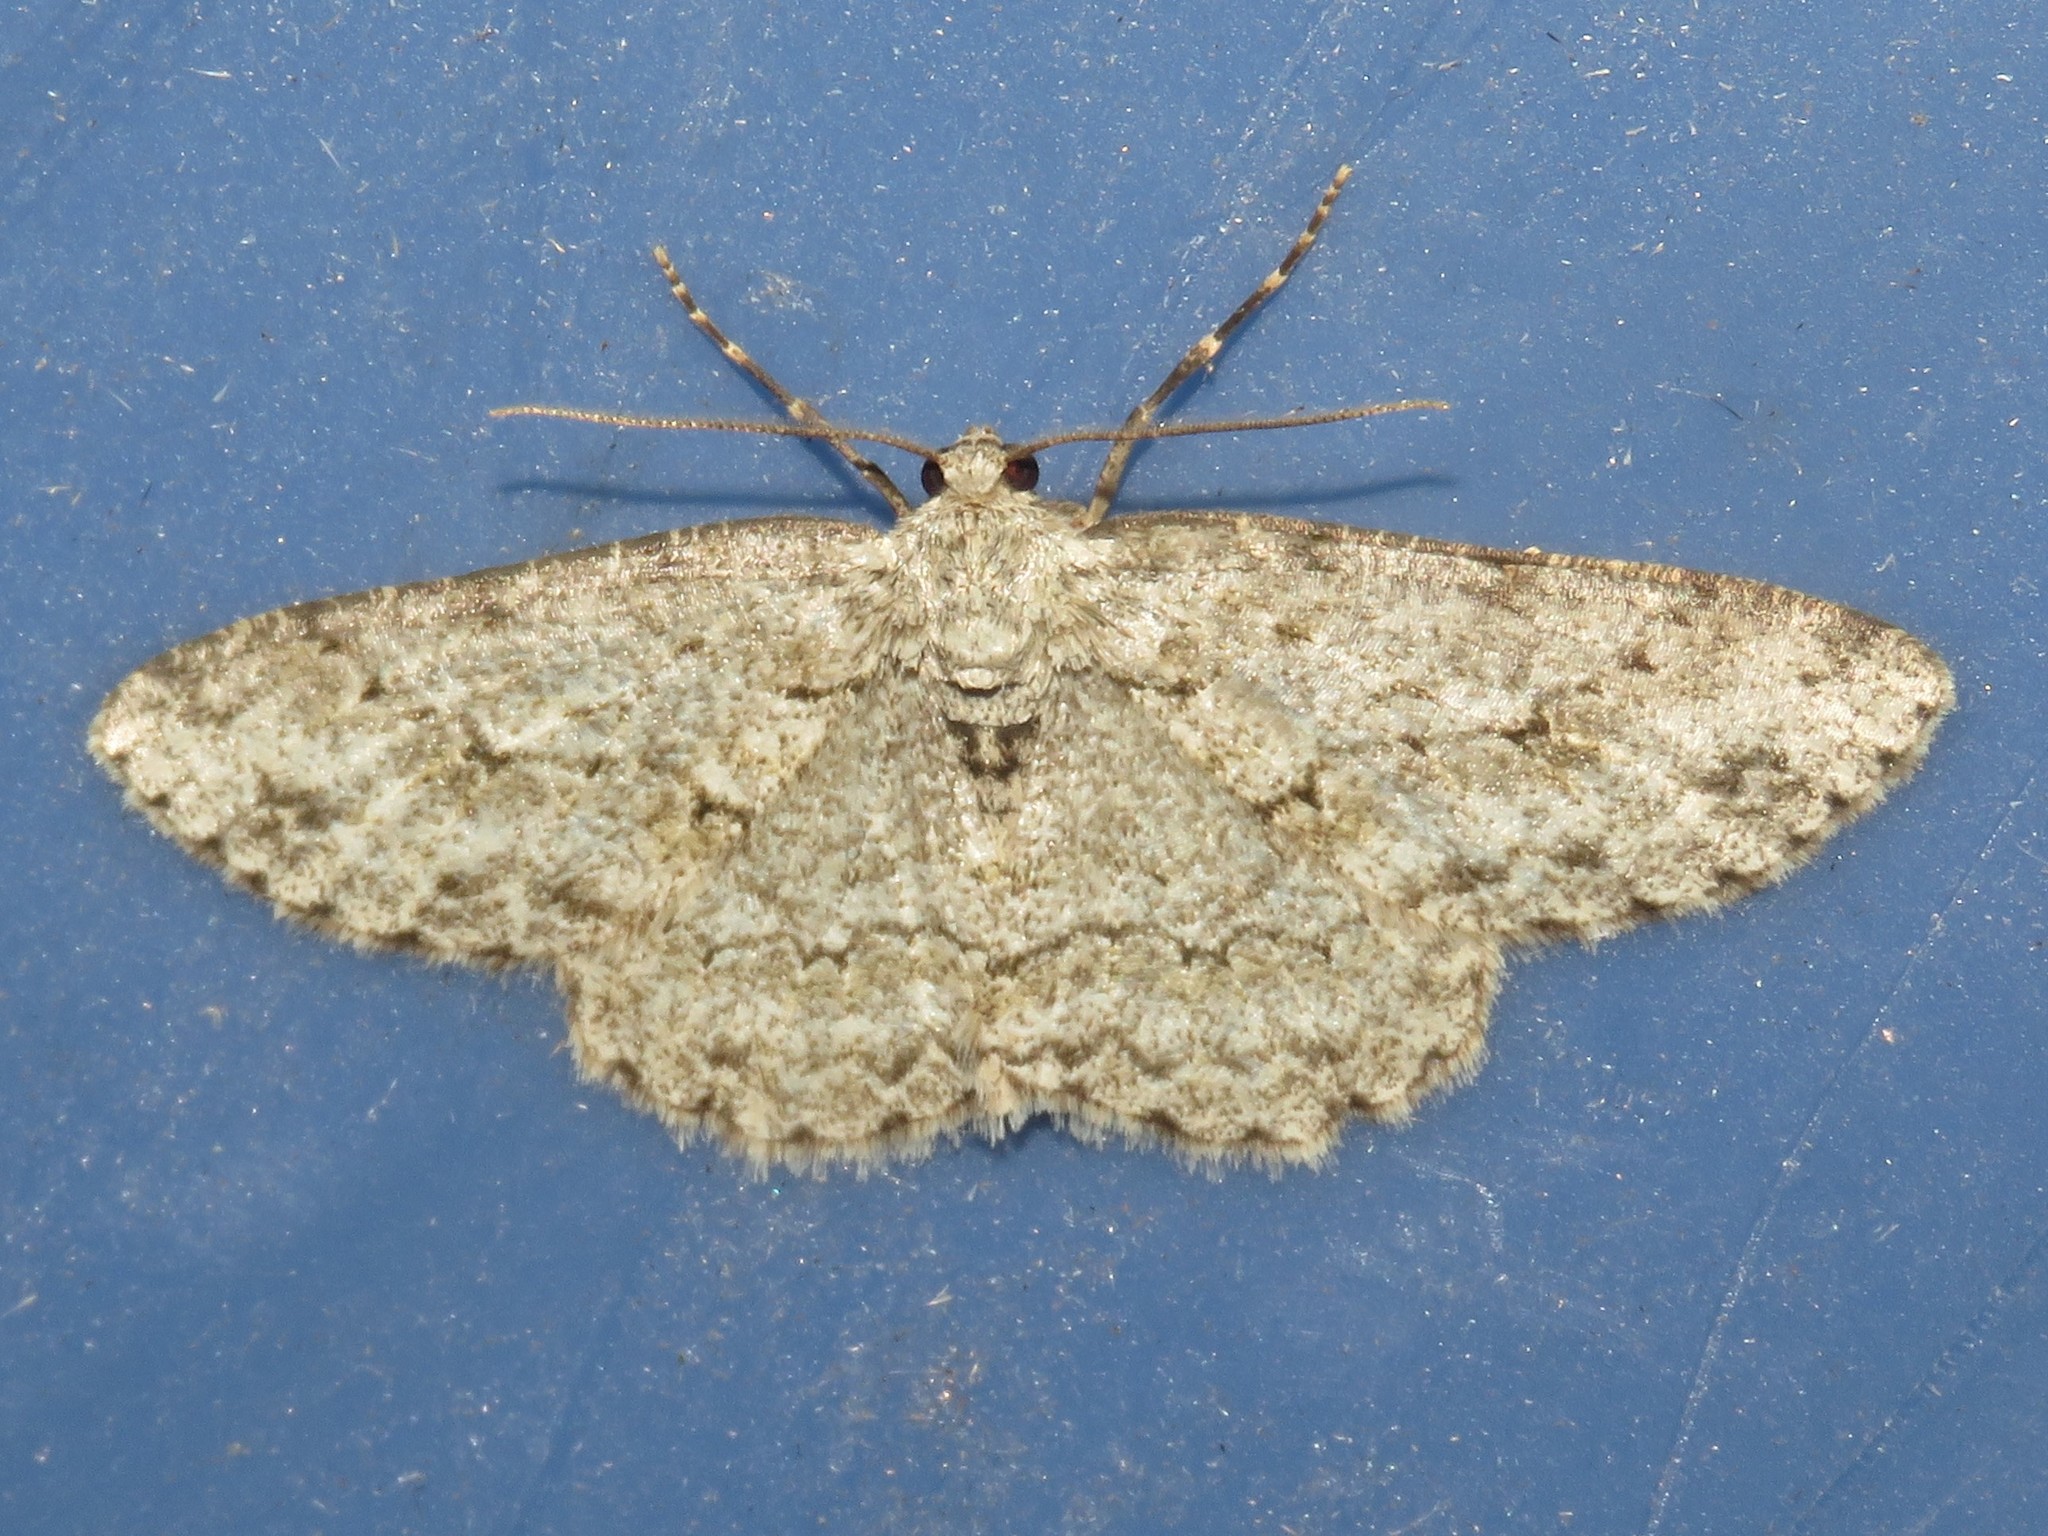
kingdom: Animalia
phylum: Arthropoda
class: Insecta
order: Lepidoptera
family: Geometridae
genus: Ectropis
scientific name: Ectropis crepuscularia
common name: Engrailed
